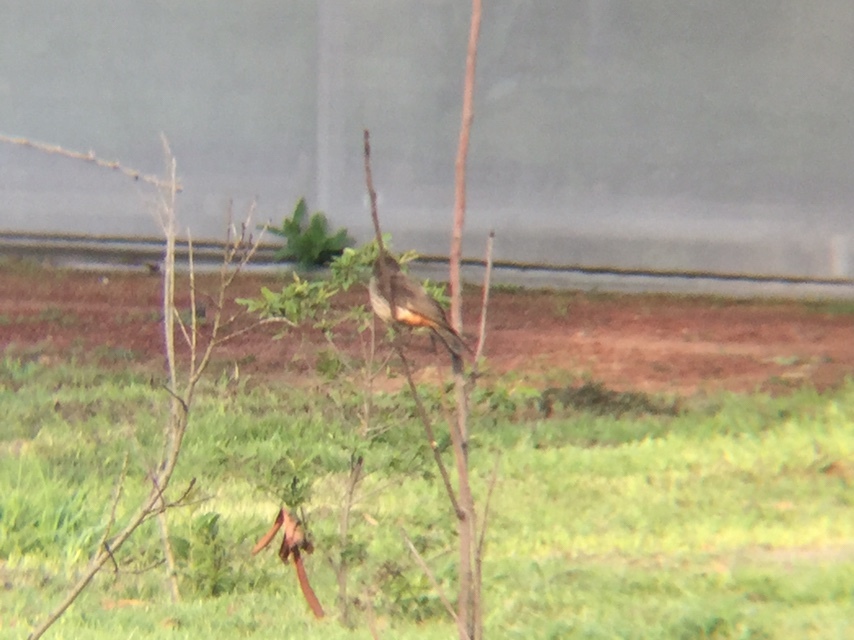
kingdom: Animalia
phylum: Chordata
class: Aves
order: Passeriformes
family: Tyrannidae
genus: Pyrocephalus
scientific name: Pyrocephalus rubinus
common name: Vermilion flycatcher
